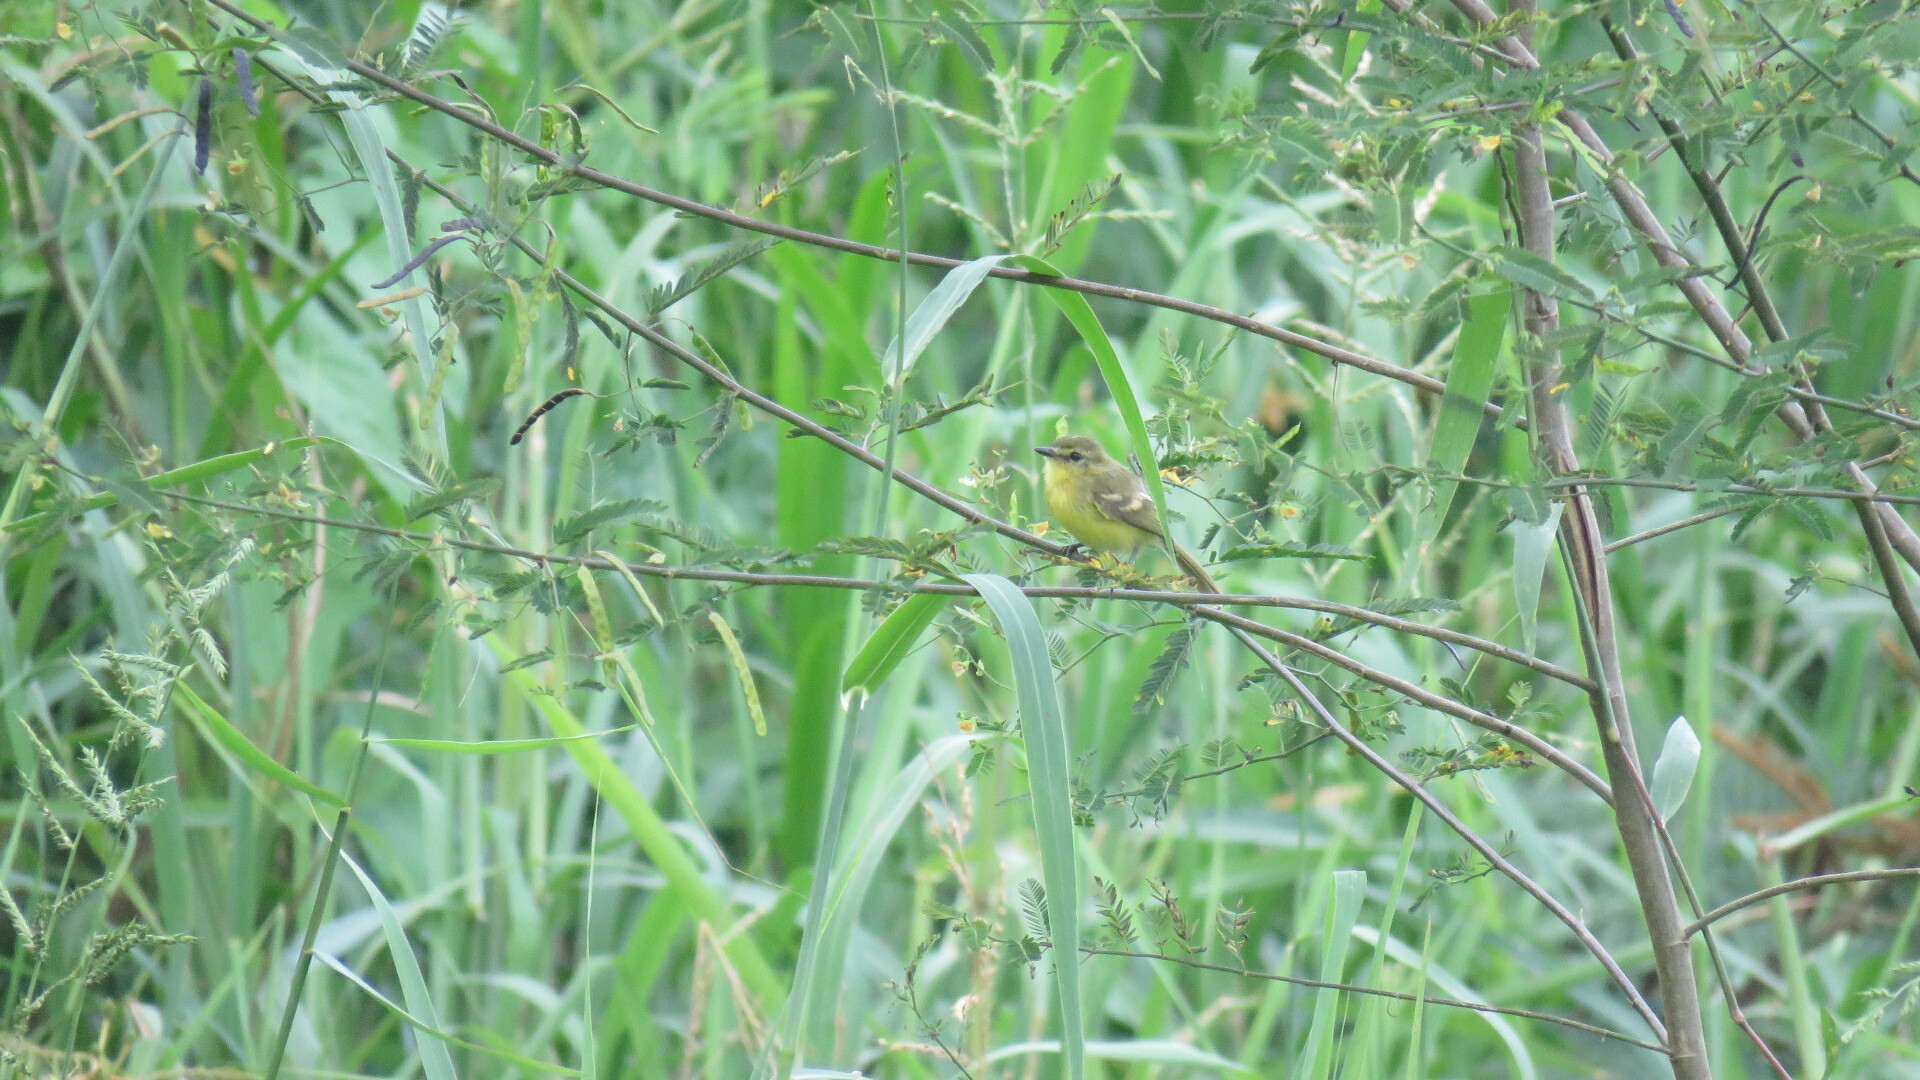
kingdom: Animalia
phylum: Chordata
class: Aves
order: Passeriformes
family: Tyrannidae
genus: Capsiempis
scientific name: Capsiempis flaveola
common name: Yellow tyrannulet
